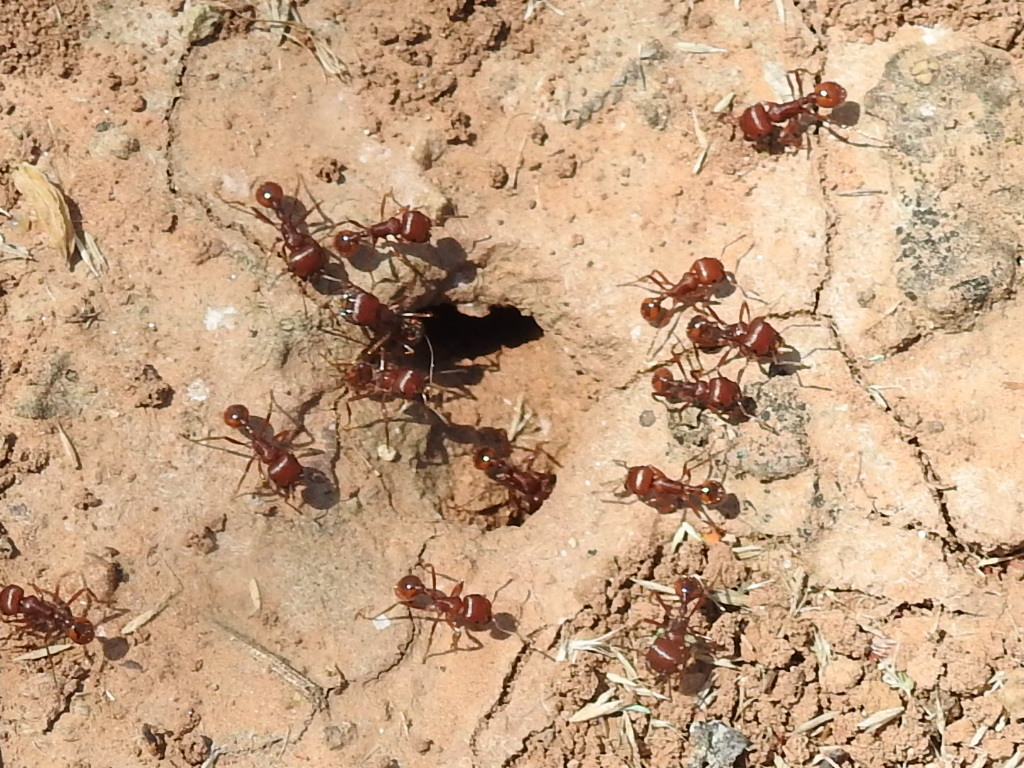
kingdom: Animalia
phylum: Arthropoda
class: Insecta
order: Hymenoptera
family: Formicidae
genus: Pogonomyrmex
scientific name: Pogonomyrmex barbatus
